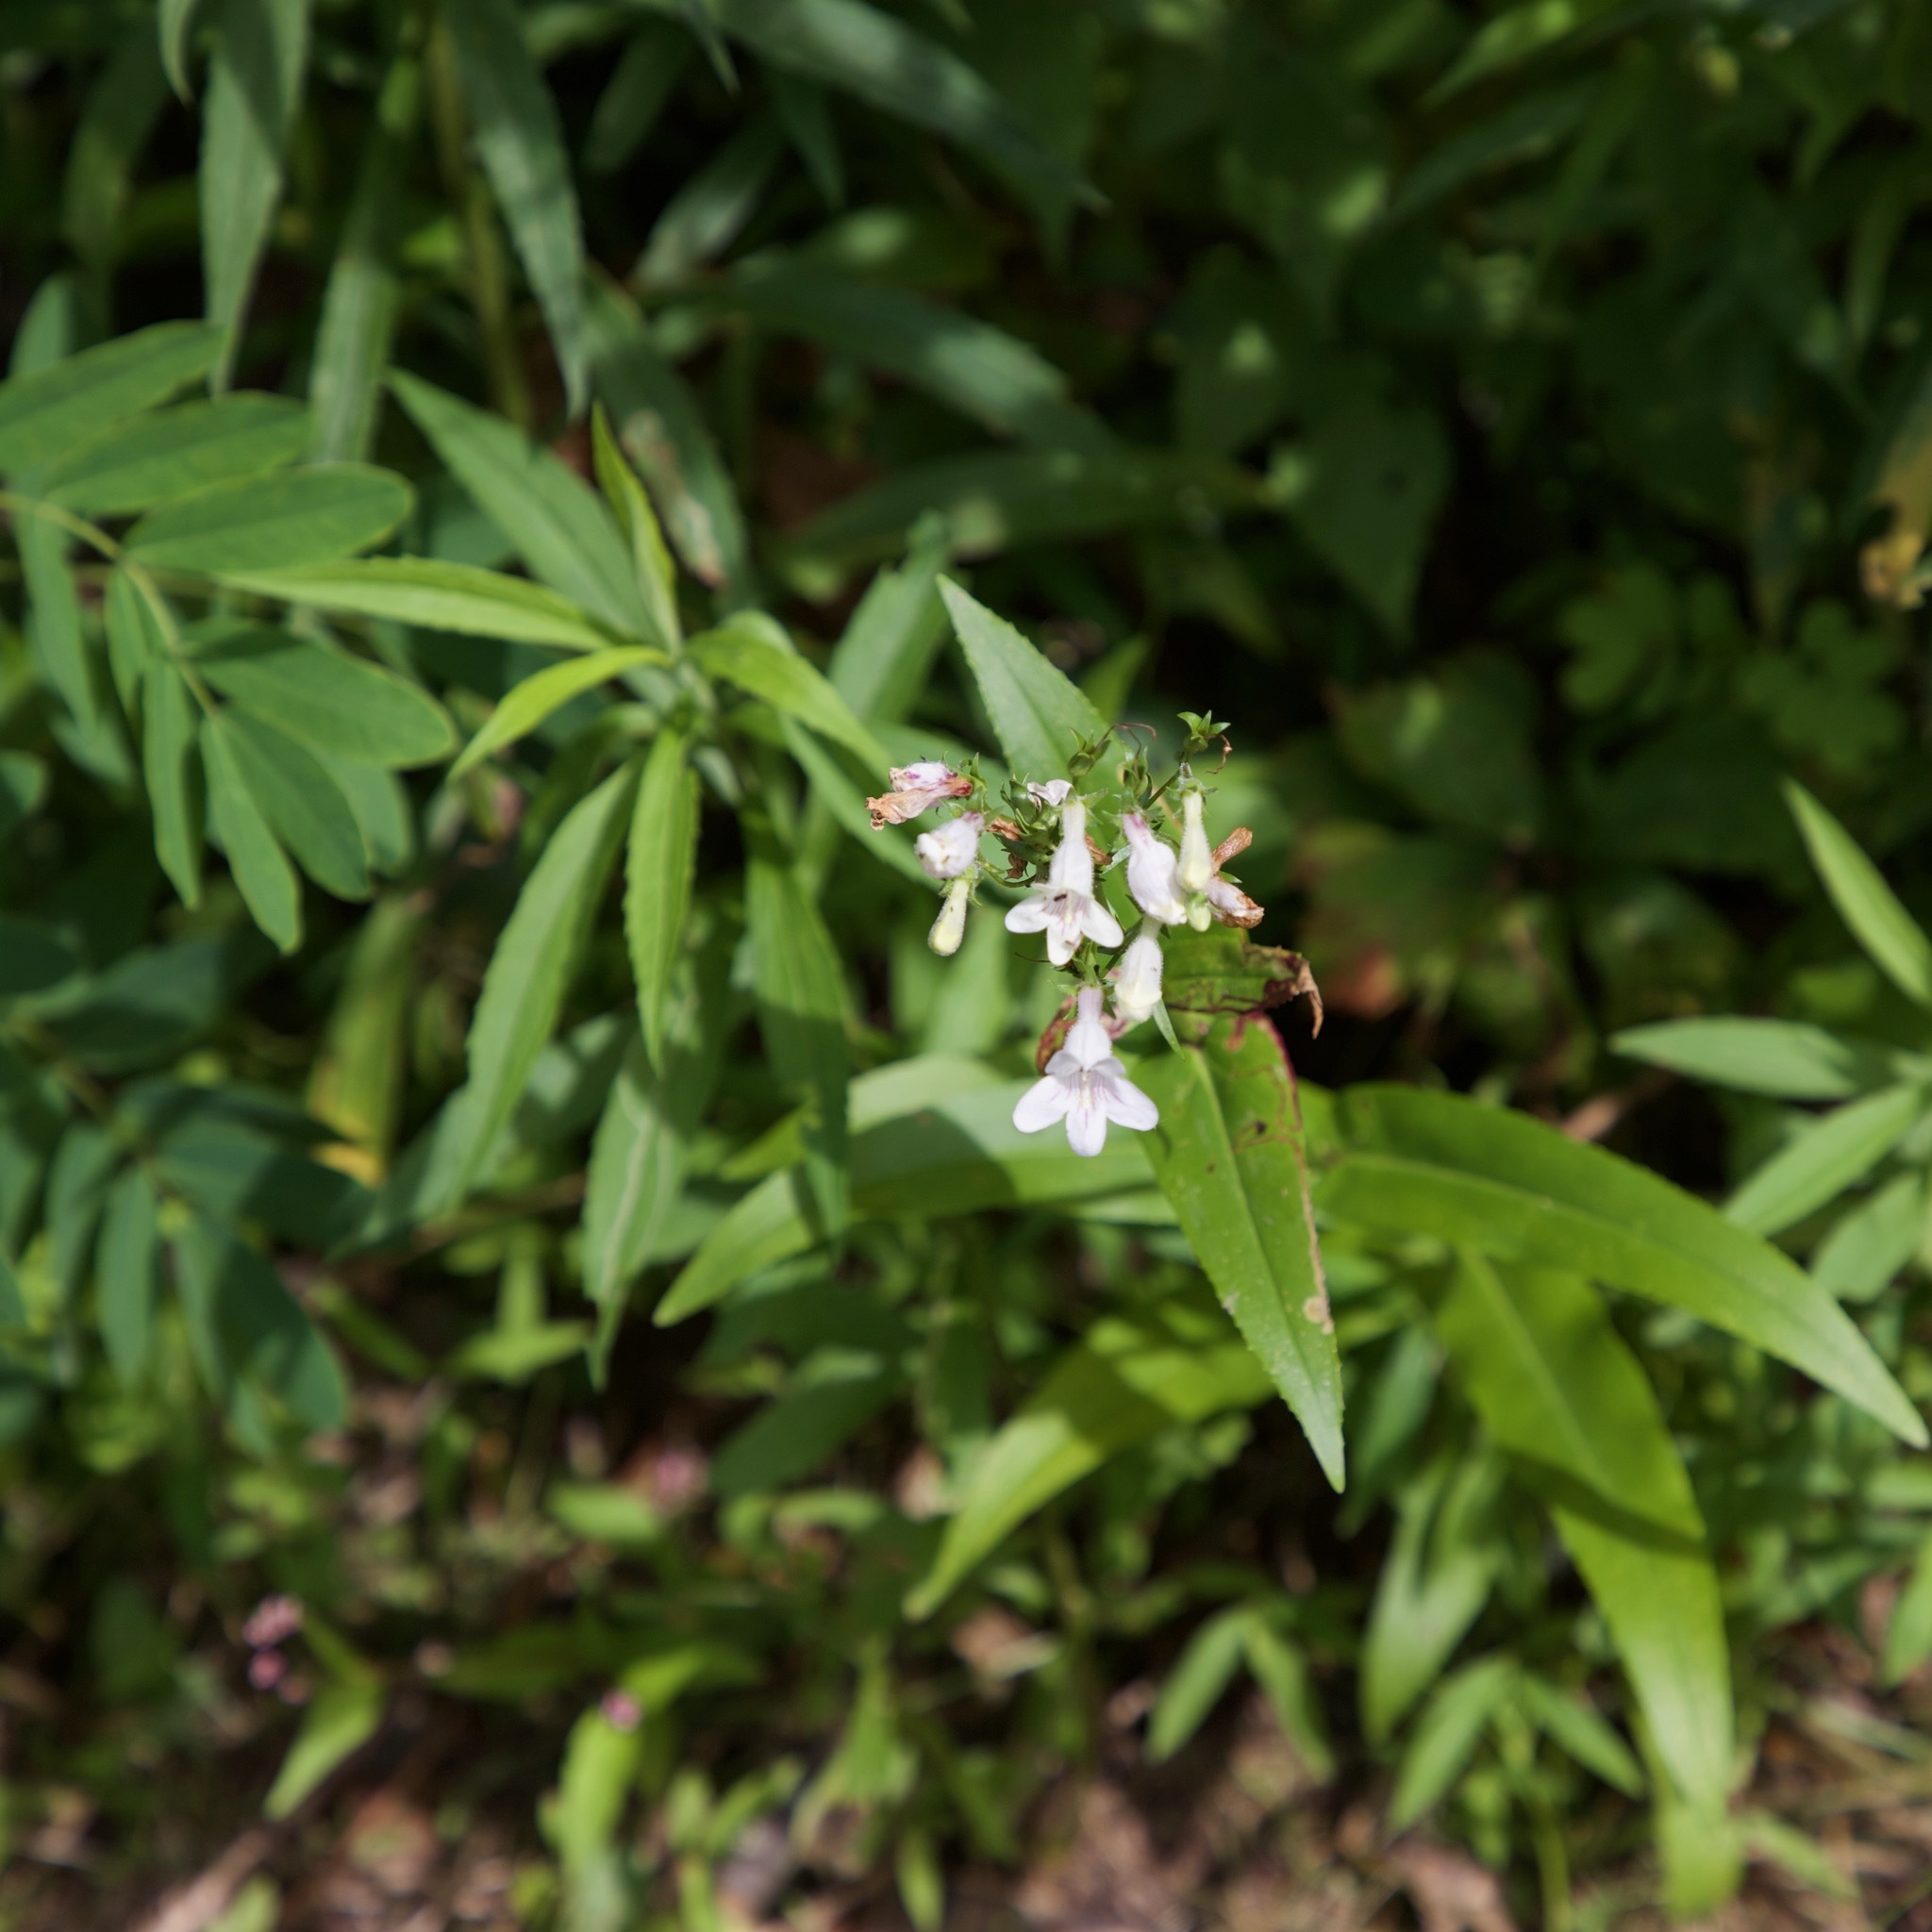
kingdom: Plantae
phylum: Tracheophyta
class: Magnoliopsida
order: Lamiales
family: Plantaginaceae
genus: Penstemon
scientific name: Penstemon digitalis
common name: Foxglove beardtongue
